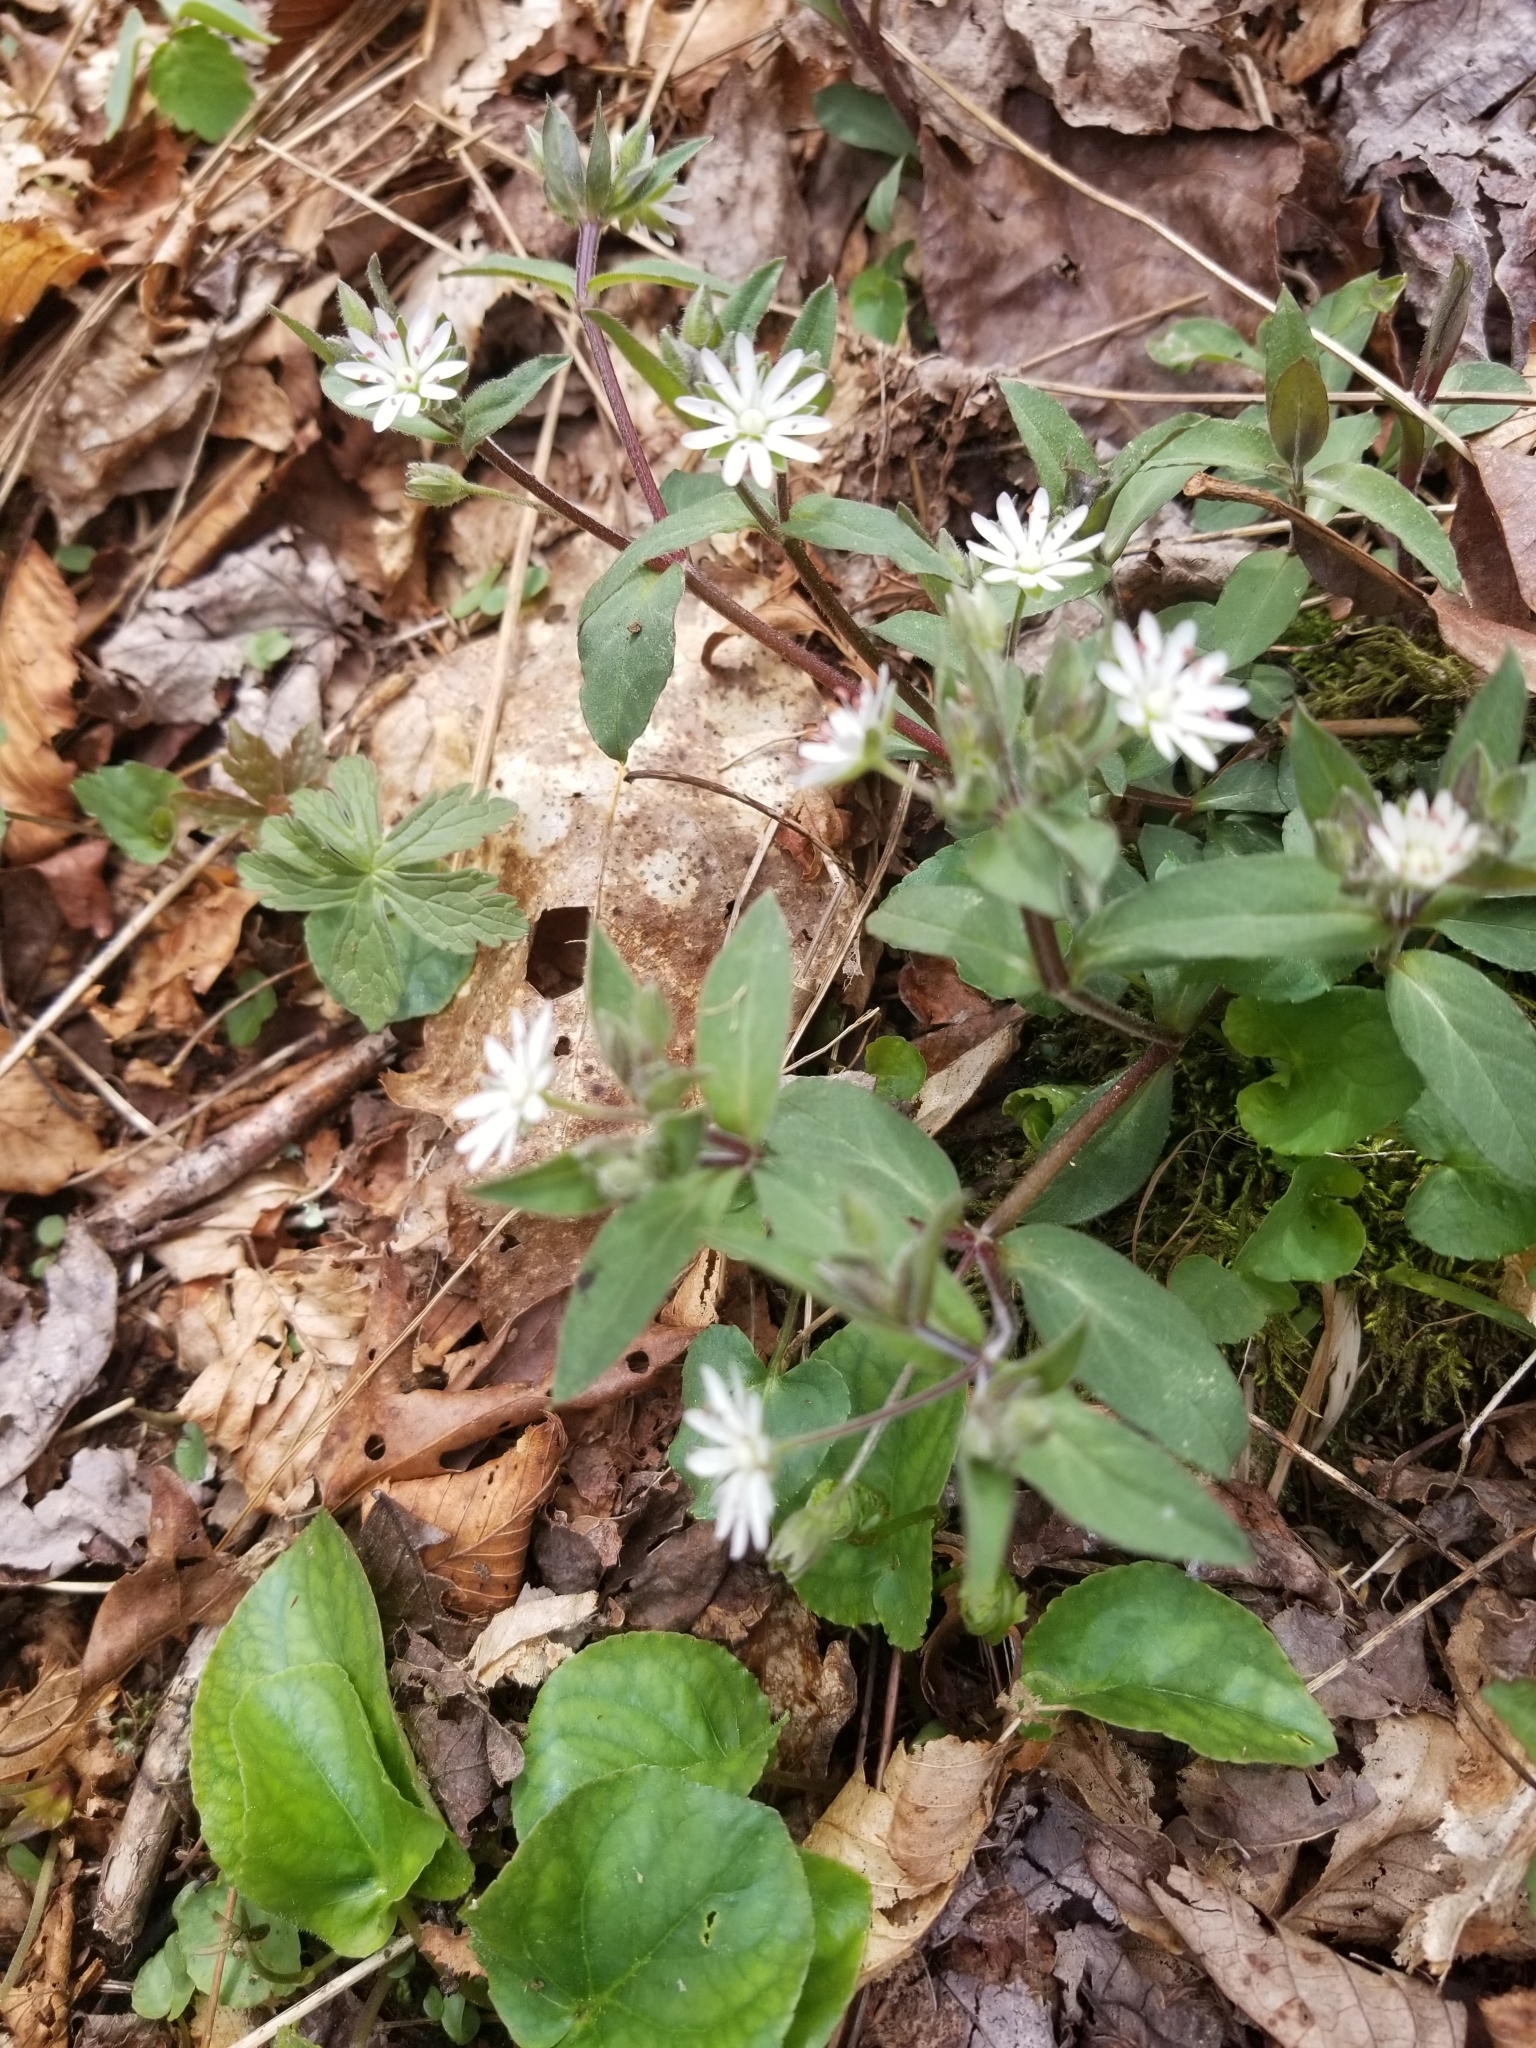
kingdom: Plantae
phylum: Tracheophyta
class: Magnoliopsida
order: Caryophyllales
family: Caryophyllaceae
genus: Stellaria
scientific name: Stellaria pubera
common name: Star chickweed
